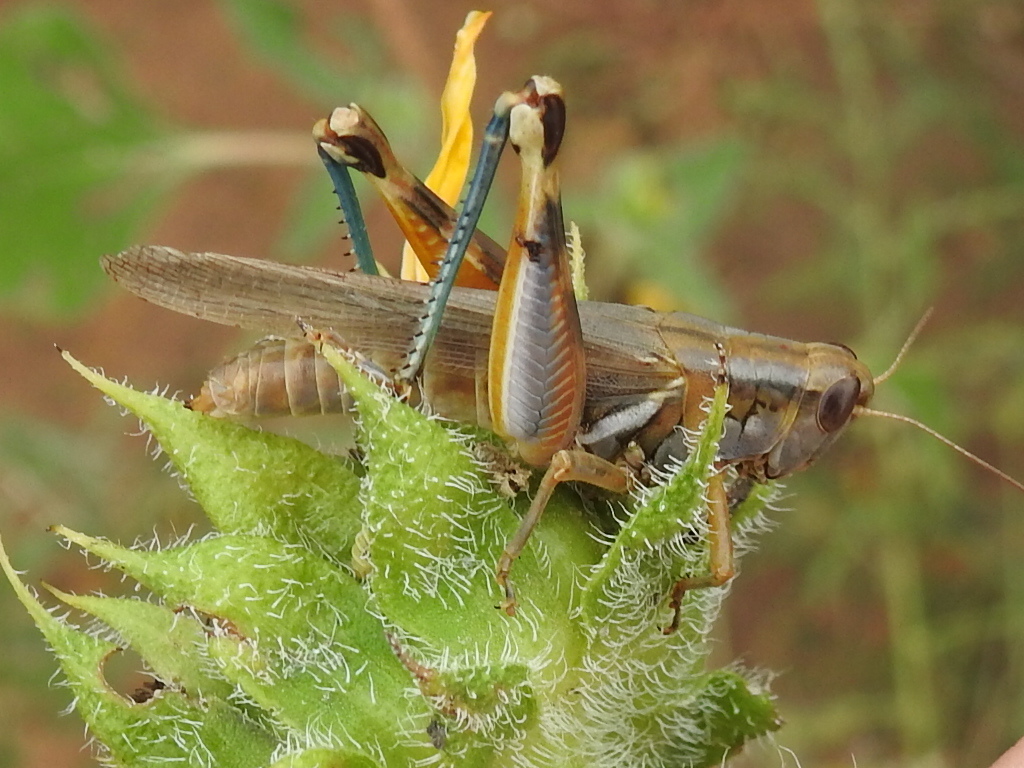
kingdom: Animalia
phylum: Arthropoda
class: Insecta
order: Orthoptera
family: Acrididae
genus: Melanoplus
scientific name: Melanoplus packardii
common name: Packard's grasshopper
